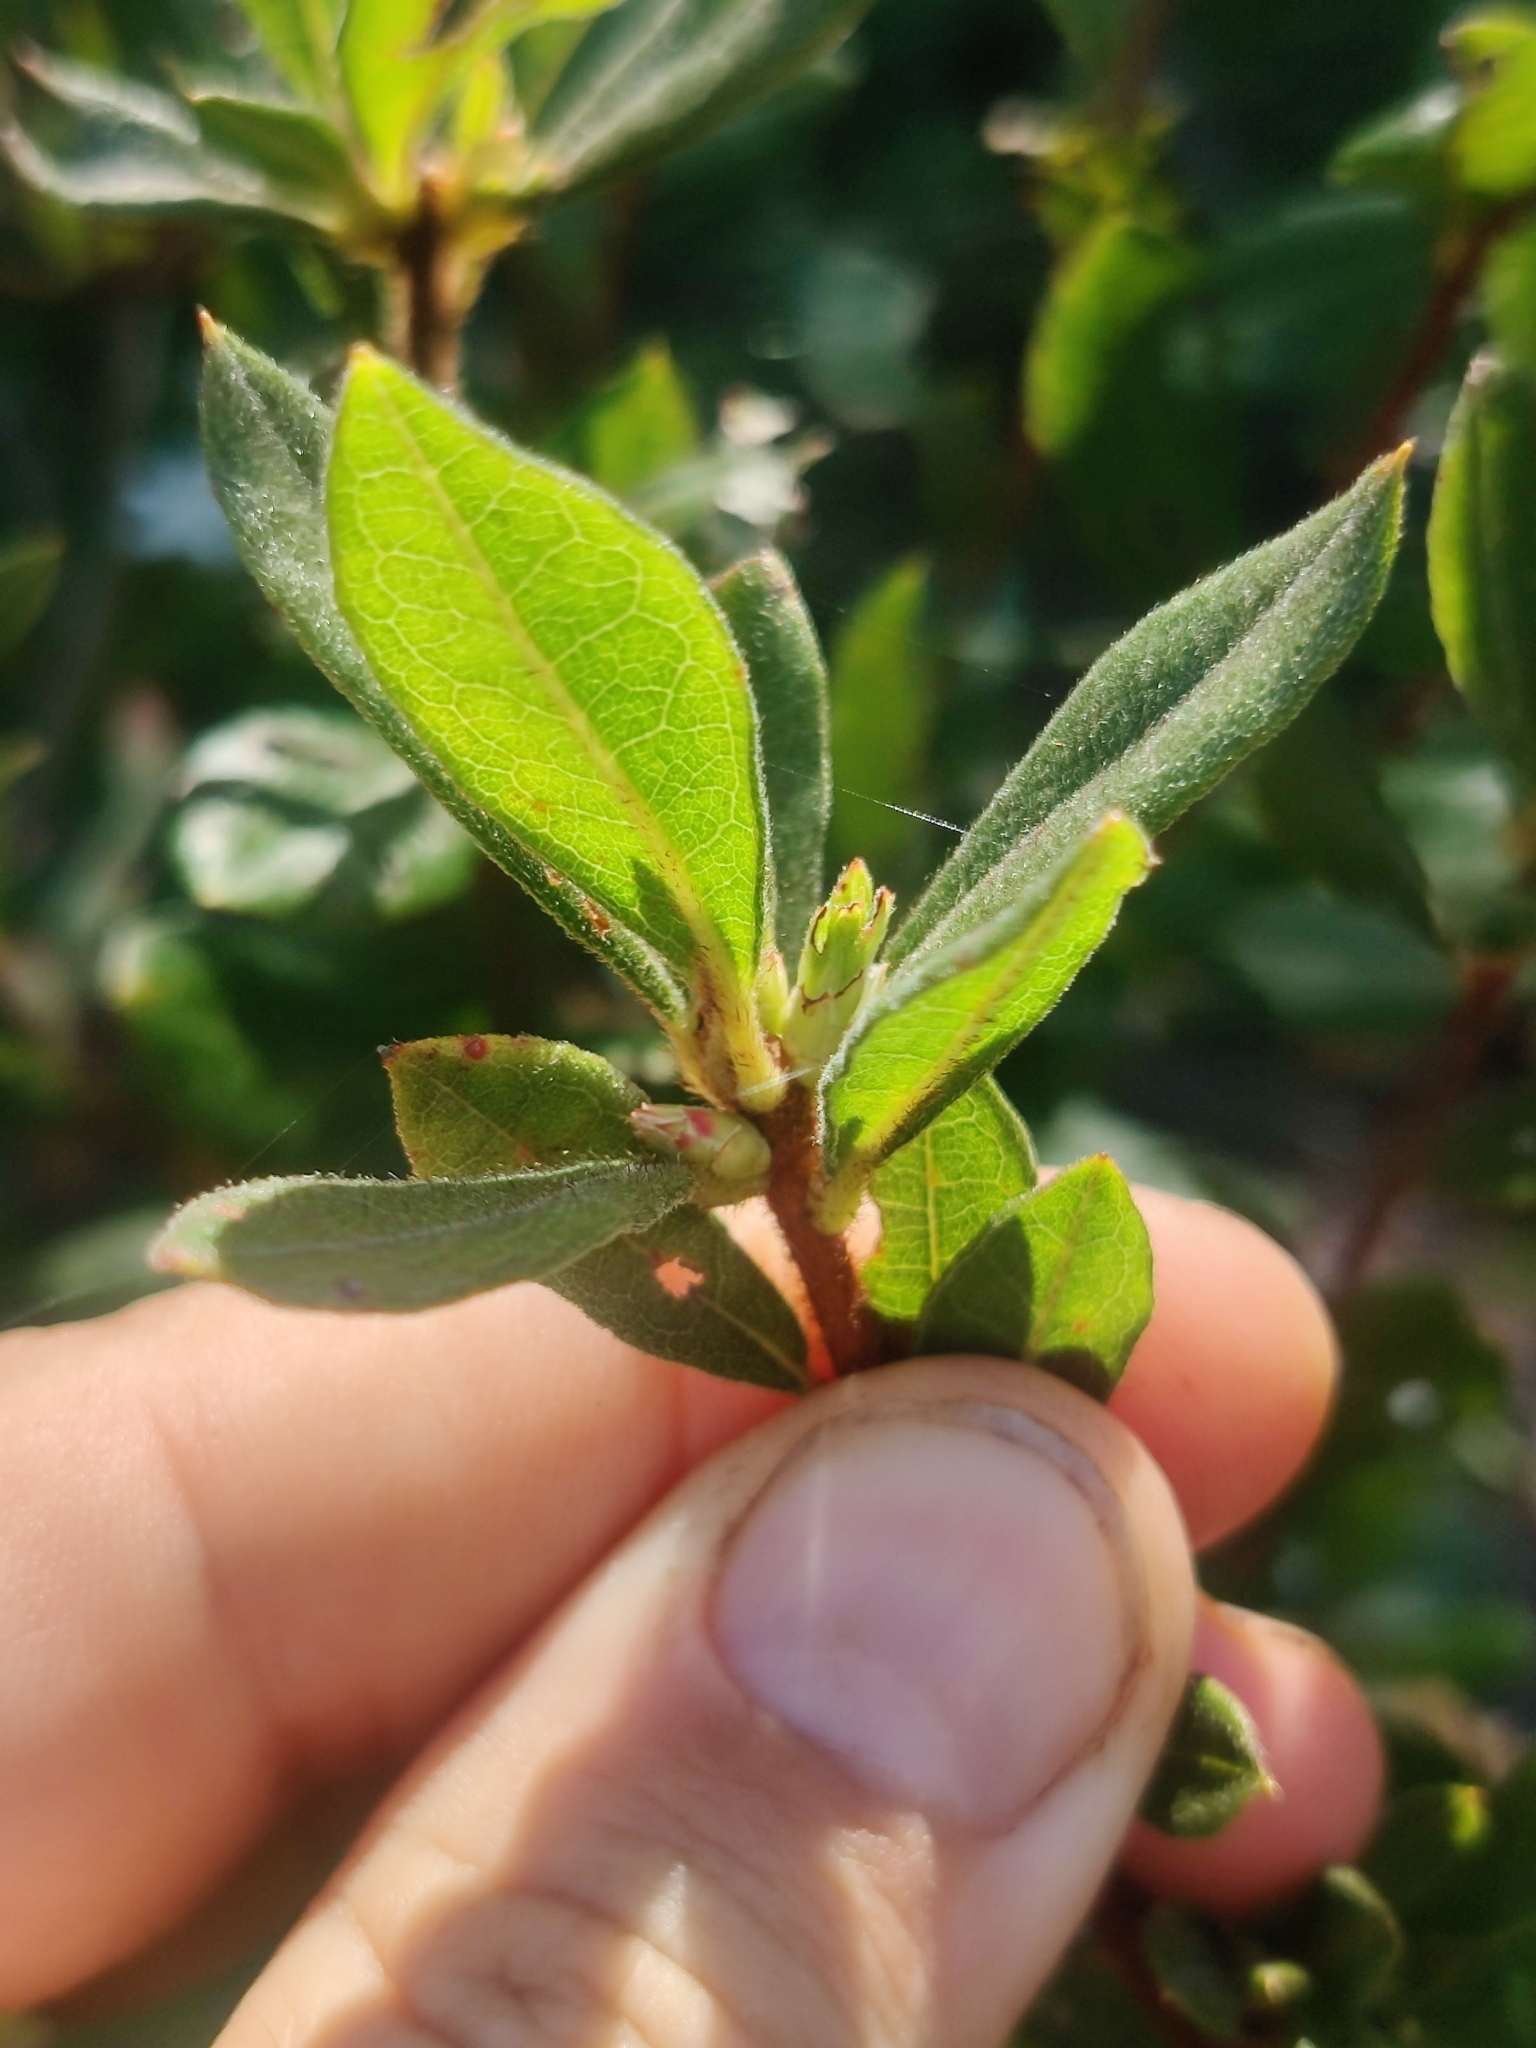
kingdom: Plantae
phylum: Tracheophyta
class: Magnoliopsida
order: Ericales
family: Ericaceae
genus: Rhododendron
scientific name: Rhododendron serrulatum
